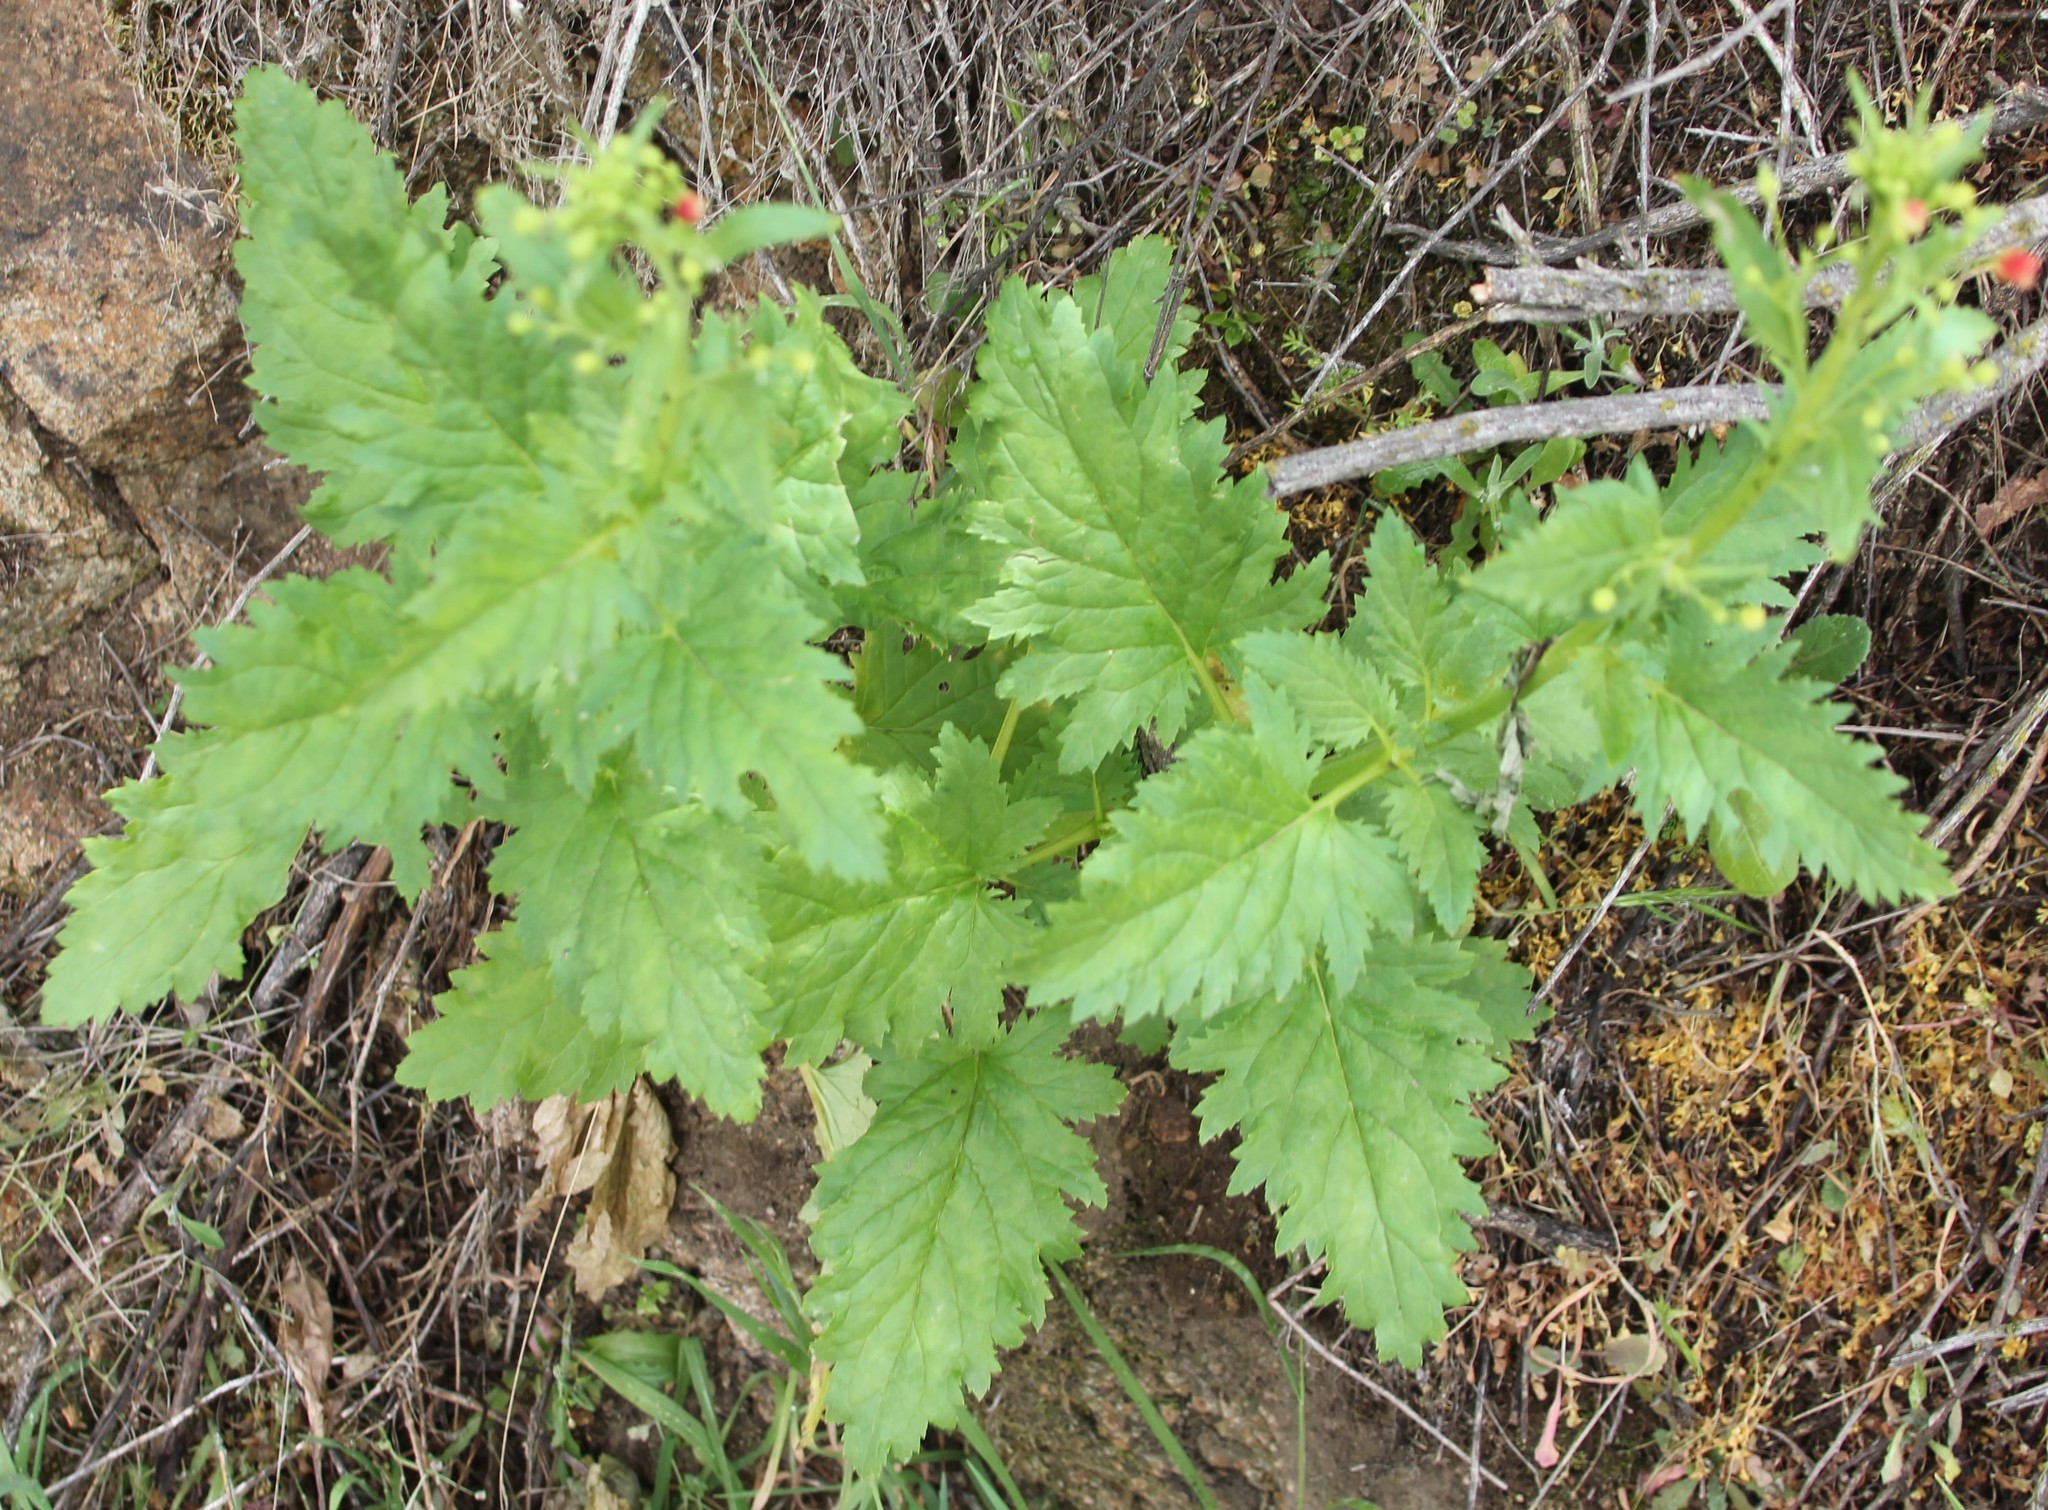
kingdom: Plantae
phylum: Tracheophyta
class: Magnoliopsida
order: Lamiales
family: Scrophulariaceae
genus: Scrophularia
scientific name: Scrophularia californica
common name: California figwort
